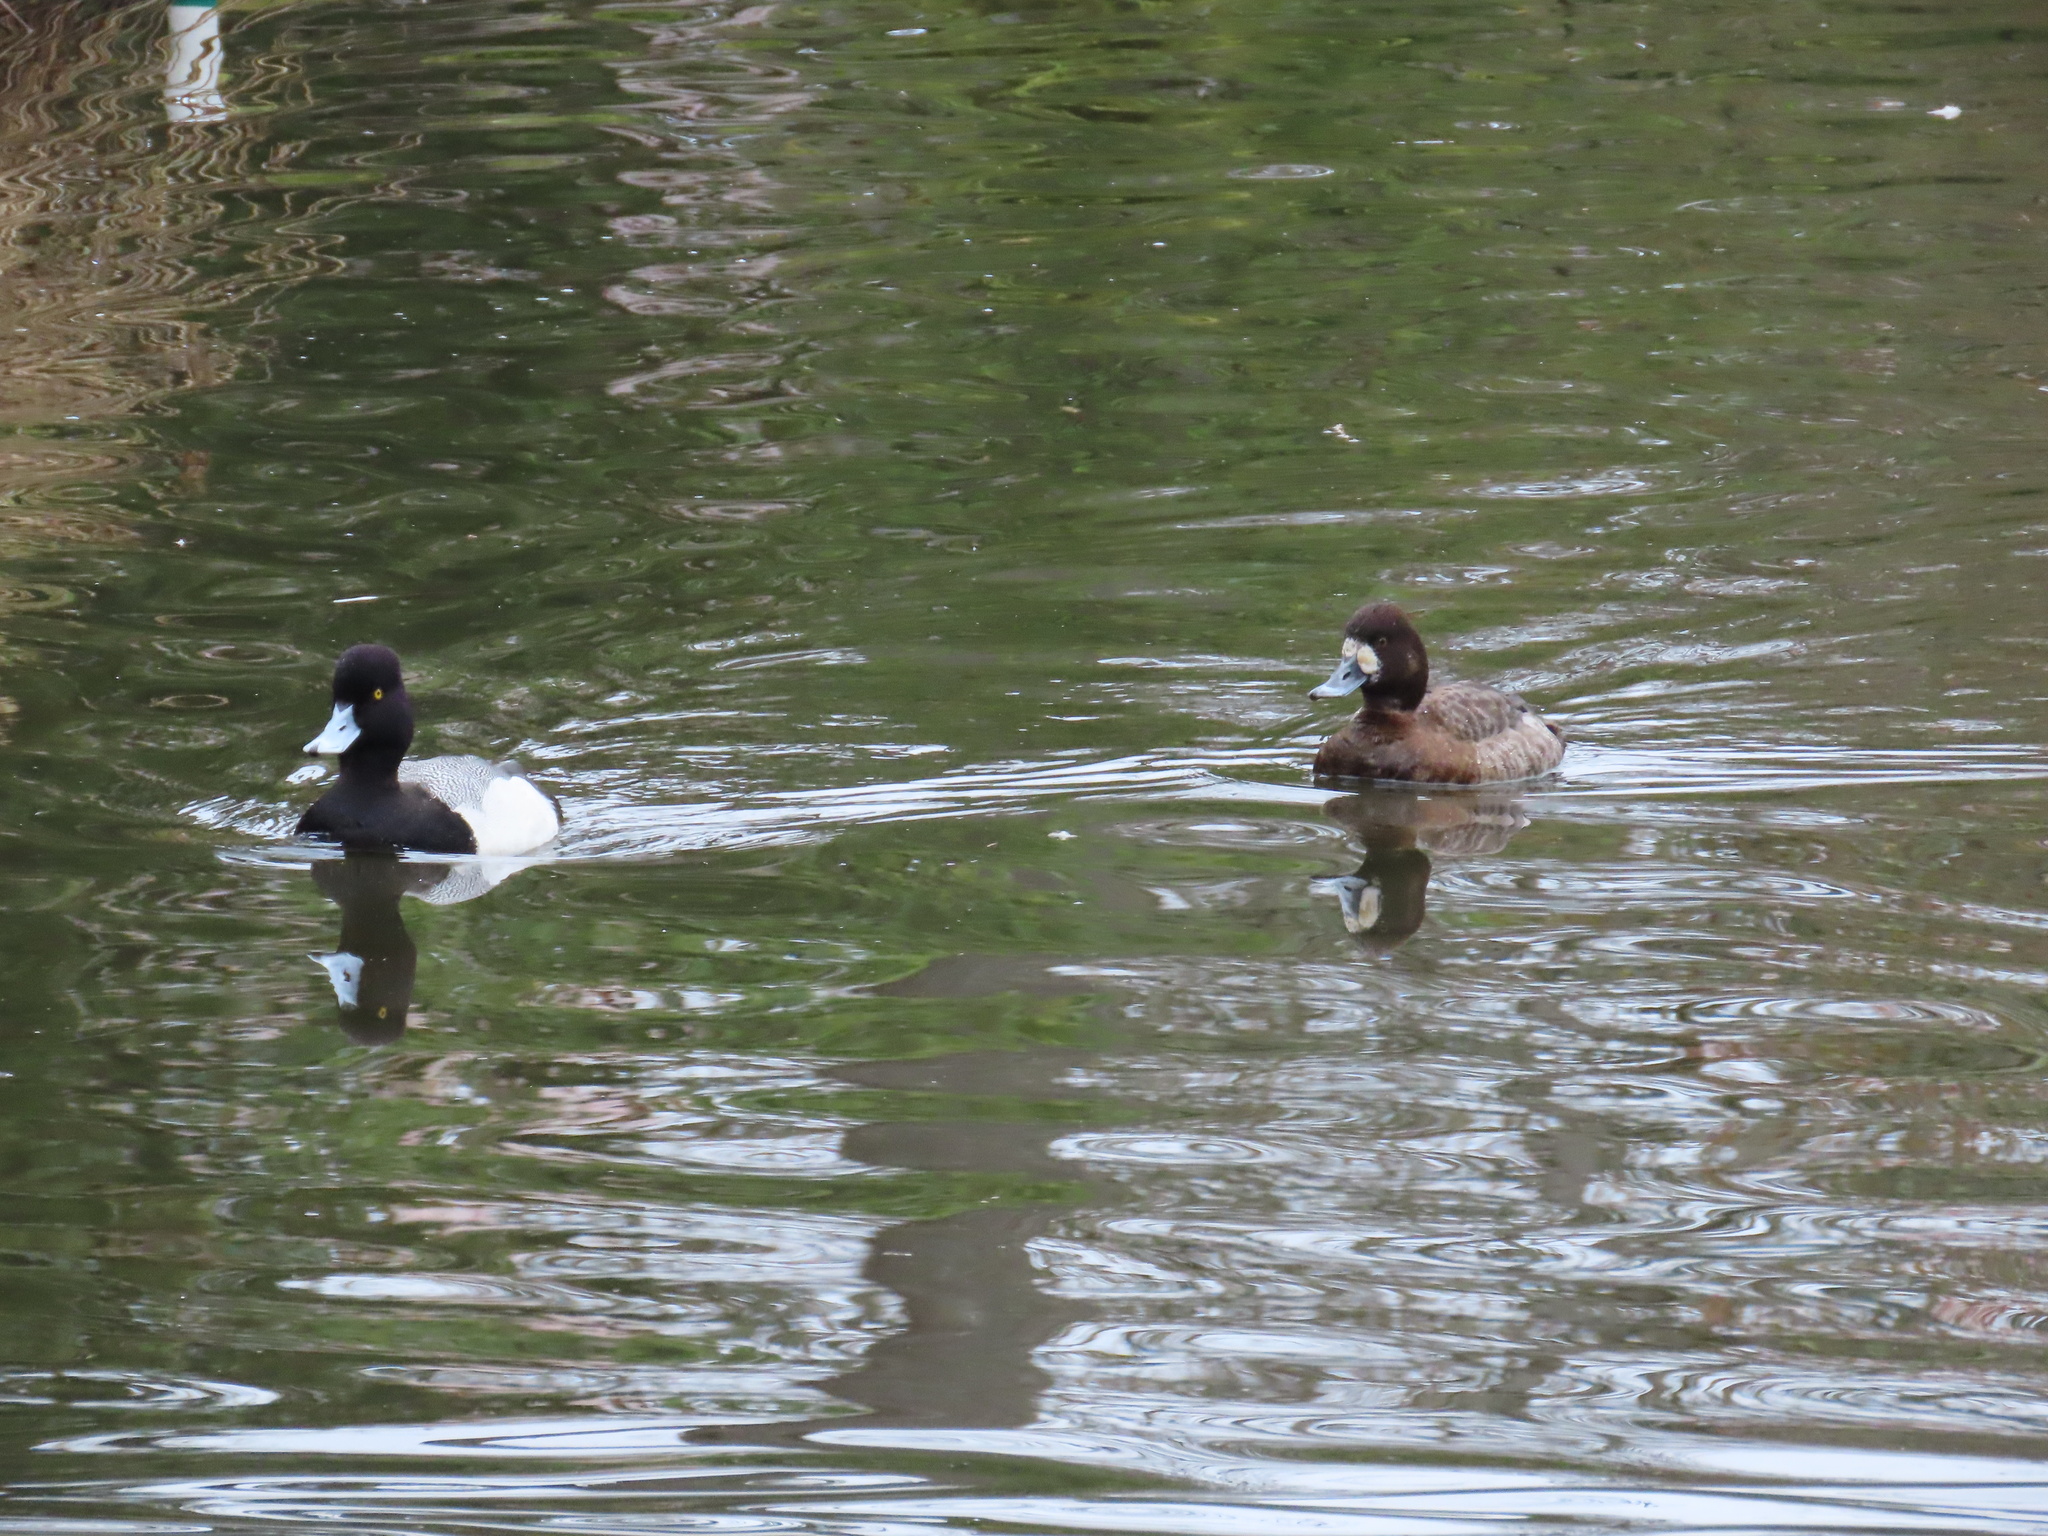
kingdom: Animalia
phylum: Chordata
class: Aves
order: Anseriformes
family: Anatidae
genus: Aythya
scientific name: Aythya affinis
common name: Lesser scaup
